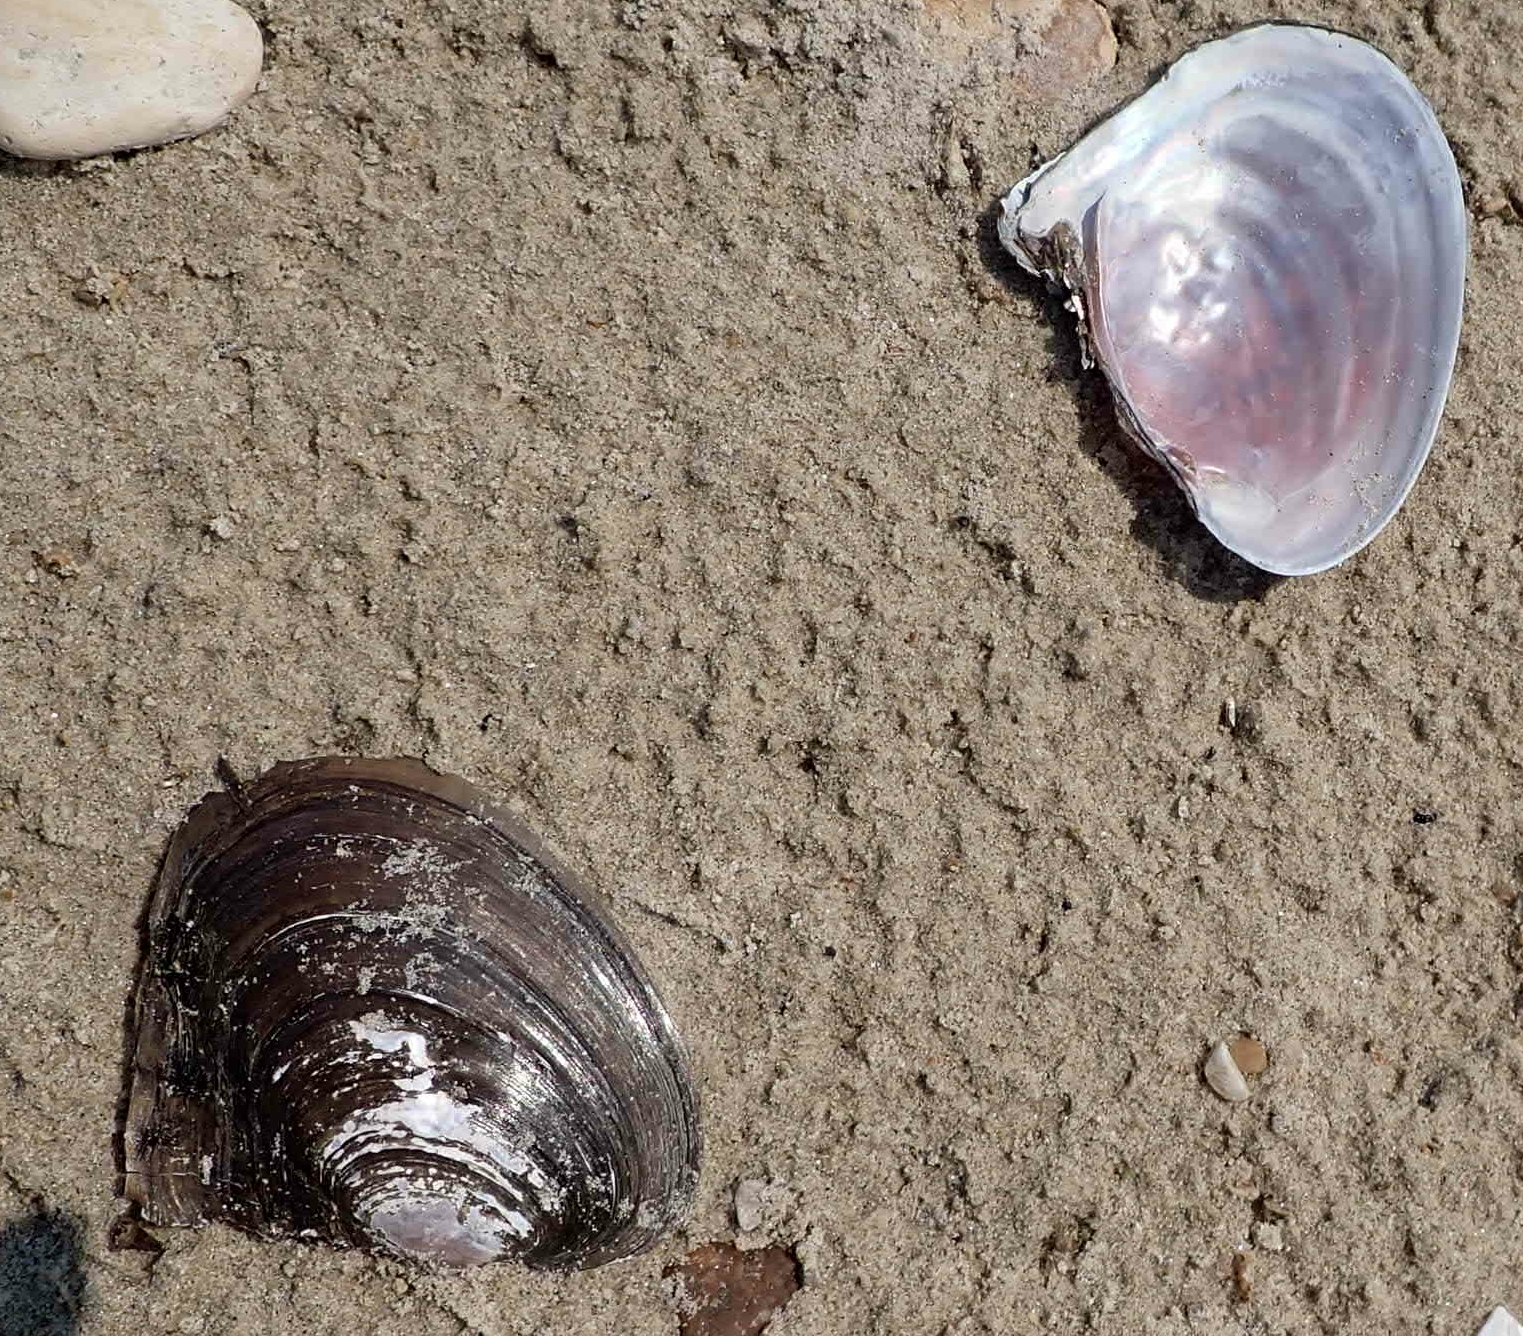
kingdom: Animalia
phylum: Mollusca
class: Bivalvia
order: Unionida
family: Unionidae
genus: Potamilus
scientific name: Potamilus alatus
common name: Pink heelsplitter
